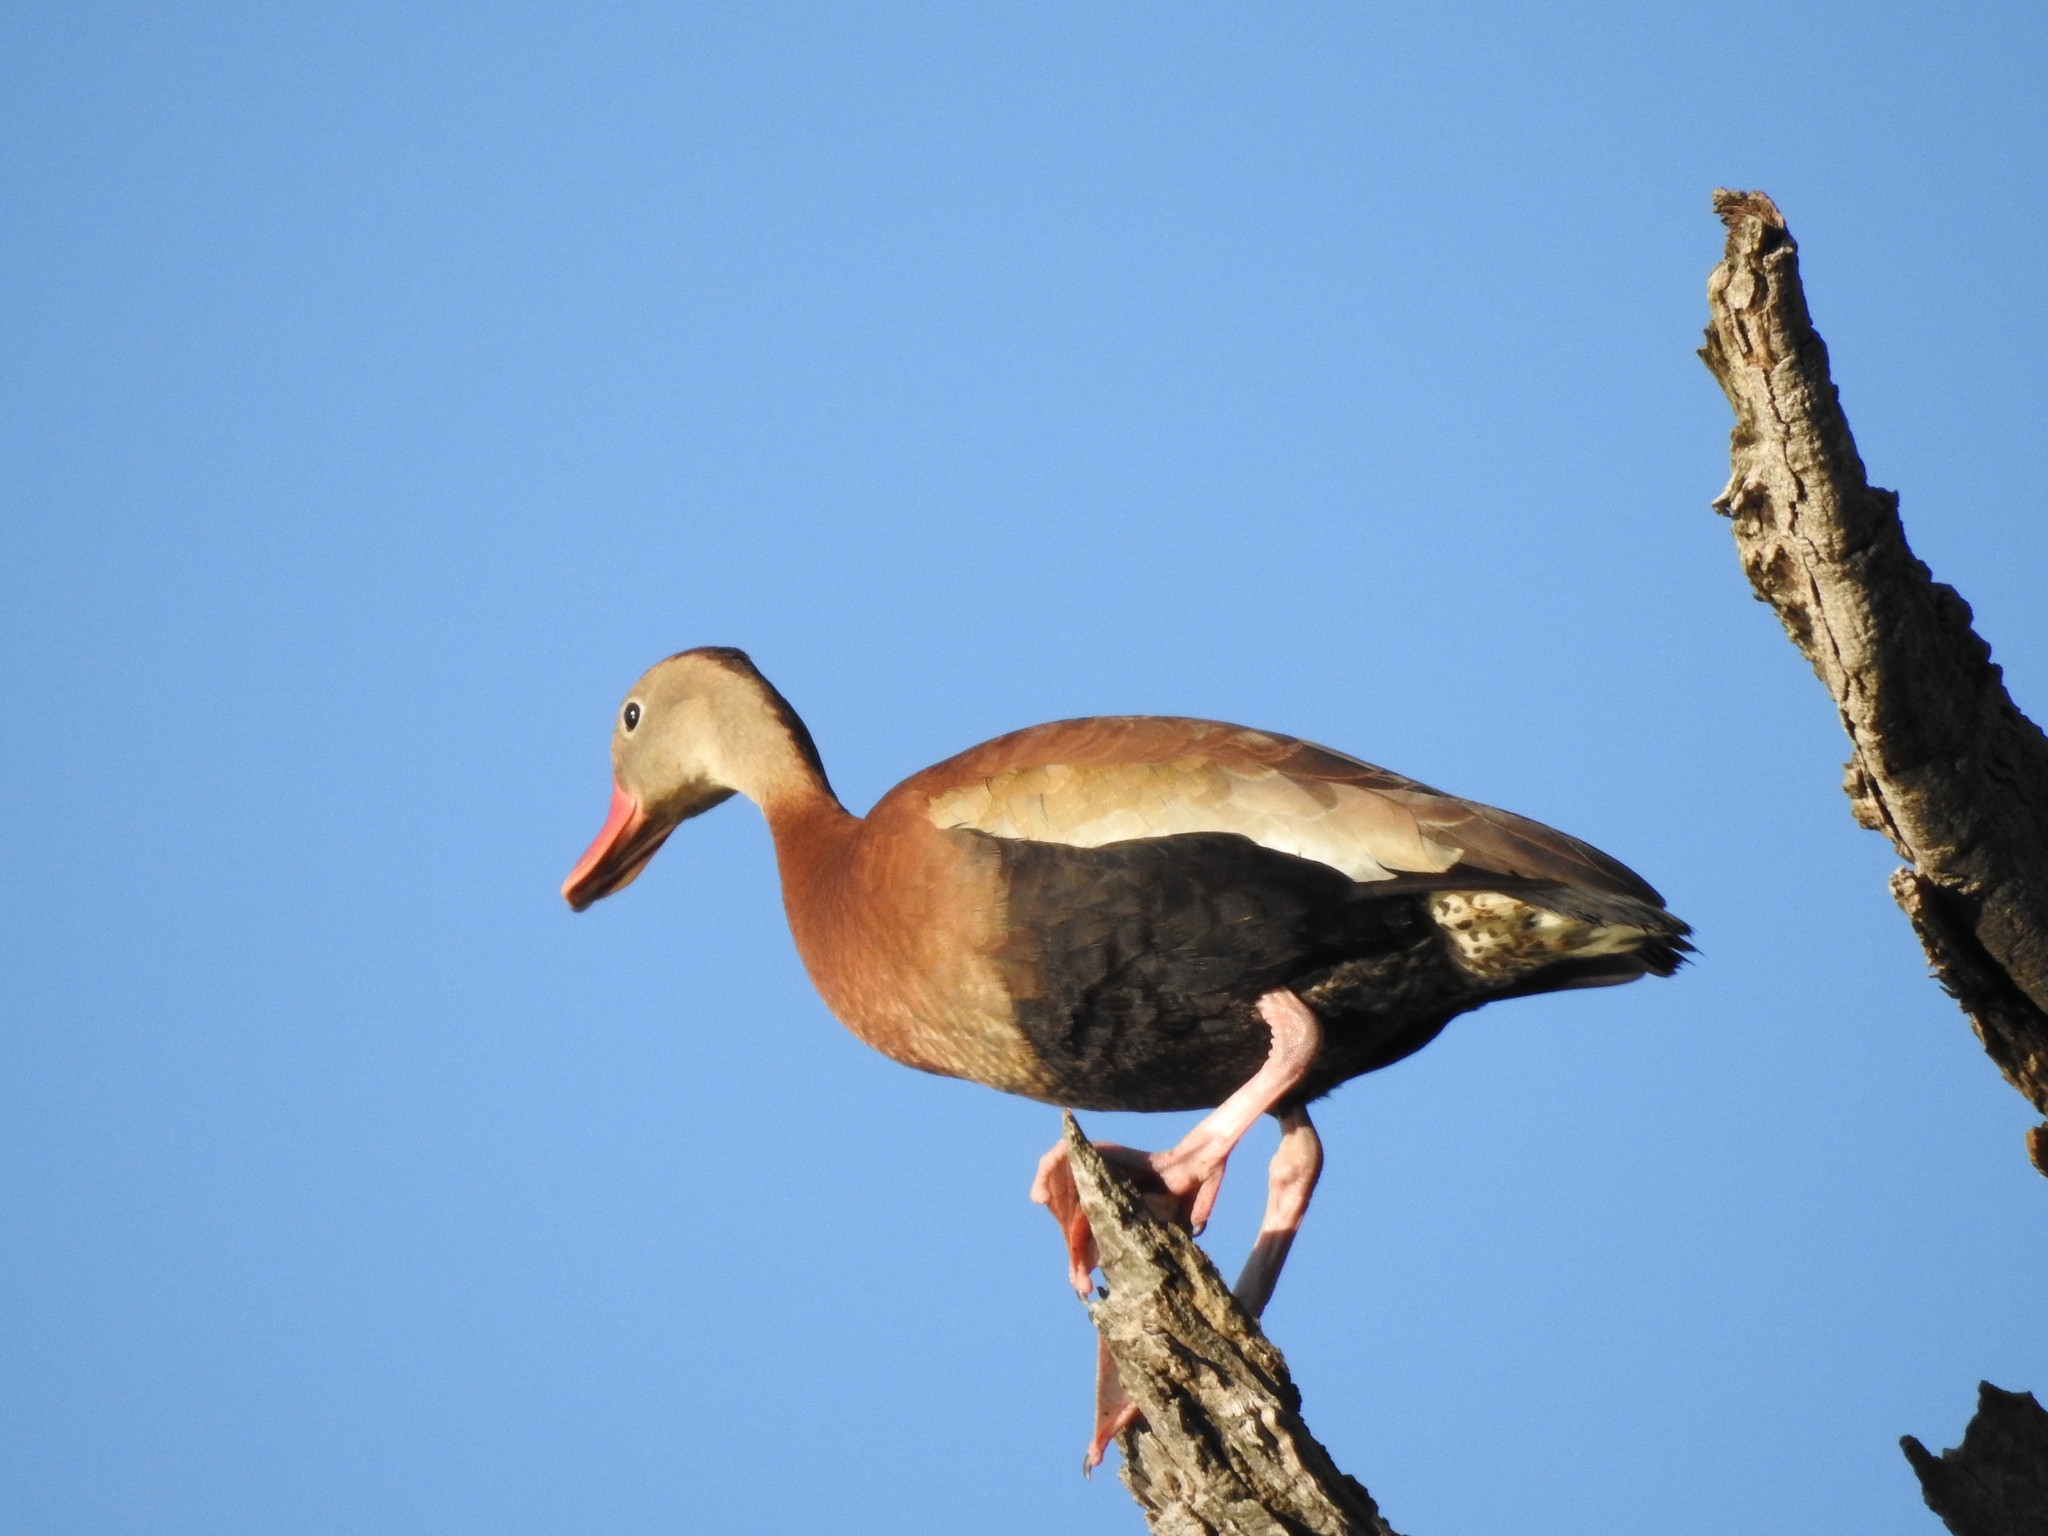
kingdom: Animalia
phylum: Chordata
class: Aves
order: Anseriformes
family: Anatidae
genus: Dendrocygna
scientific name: Dendrocygna autumnalis
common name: Black-bellied whistling duck
